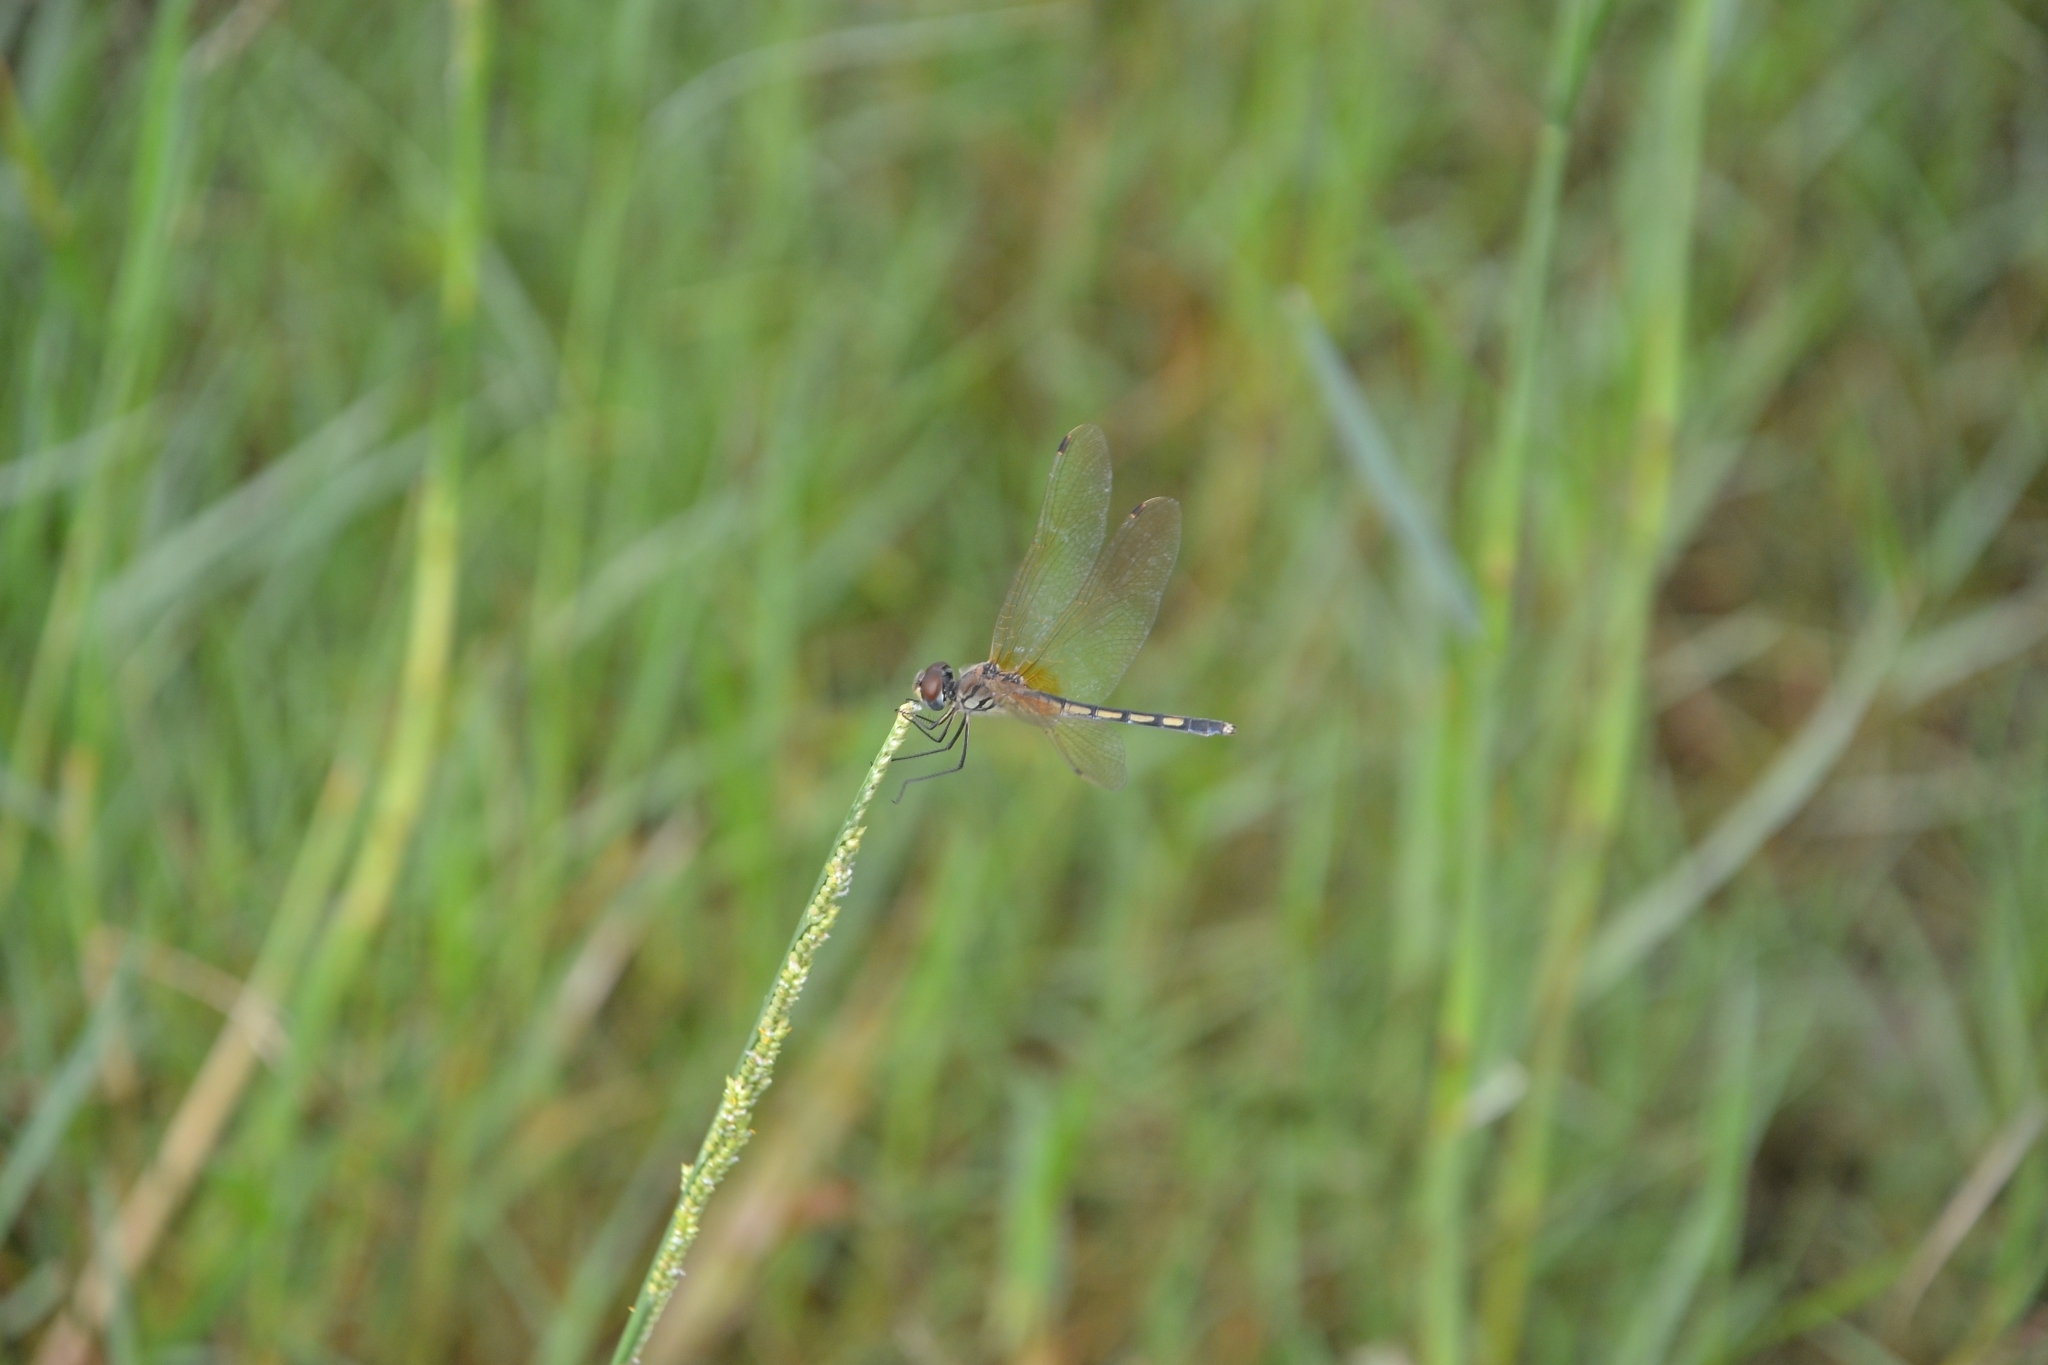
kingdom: Animalia
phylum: Arthropoda
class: Insecta
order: Odonata
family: Libellulidae
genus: Trithemis
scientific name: Trithemis pallidinervis
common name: Dancing dropwing
